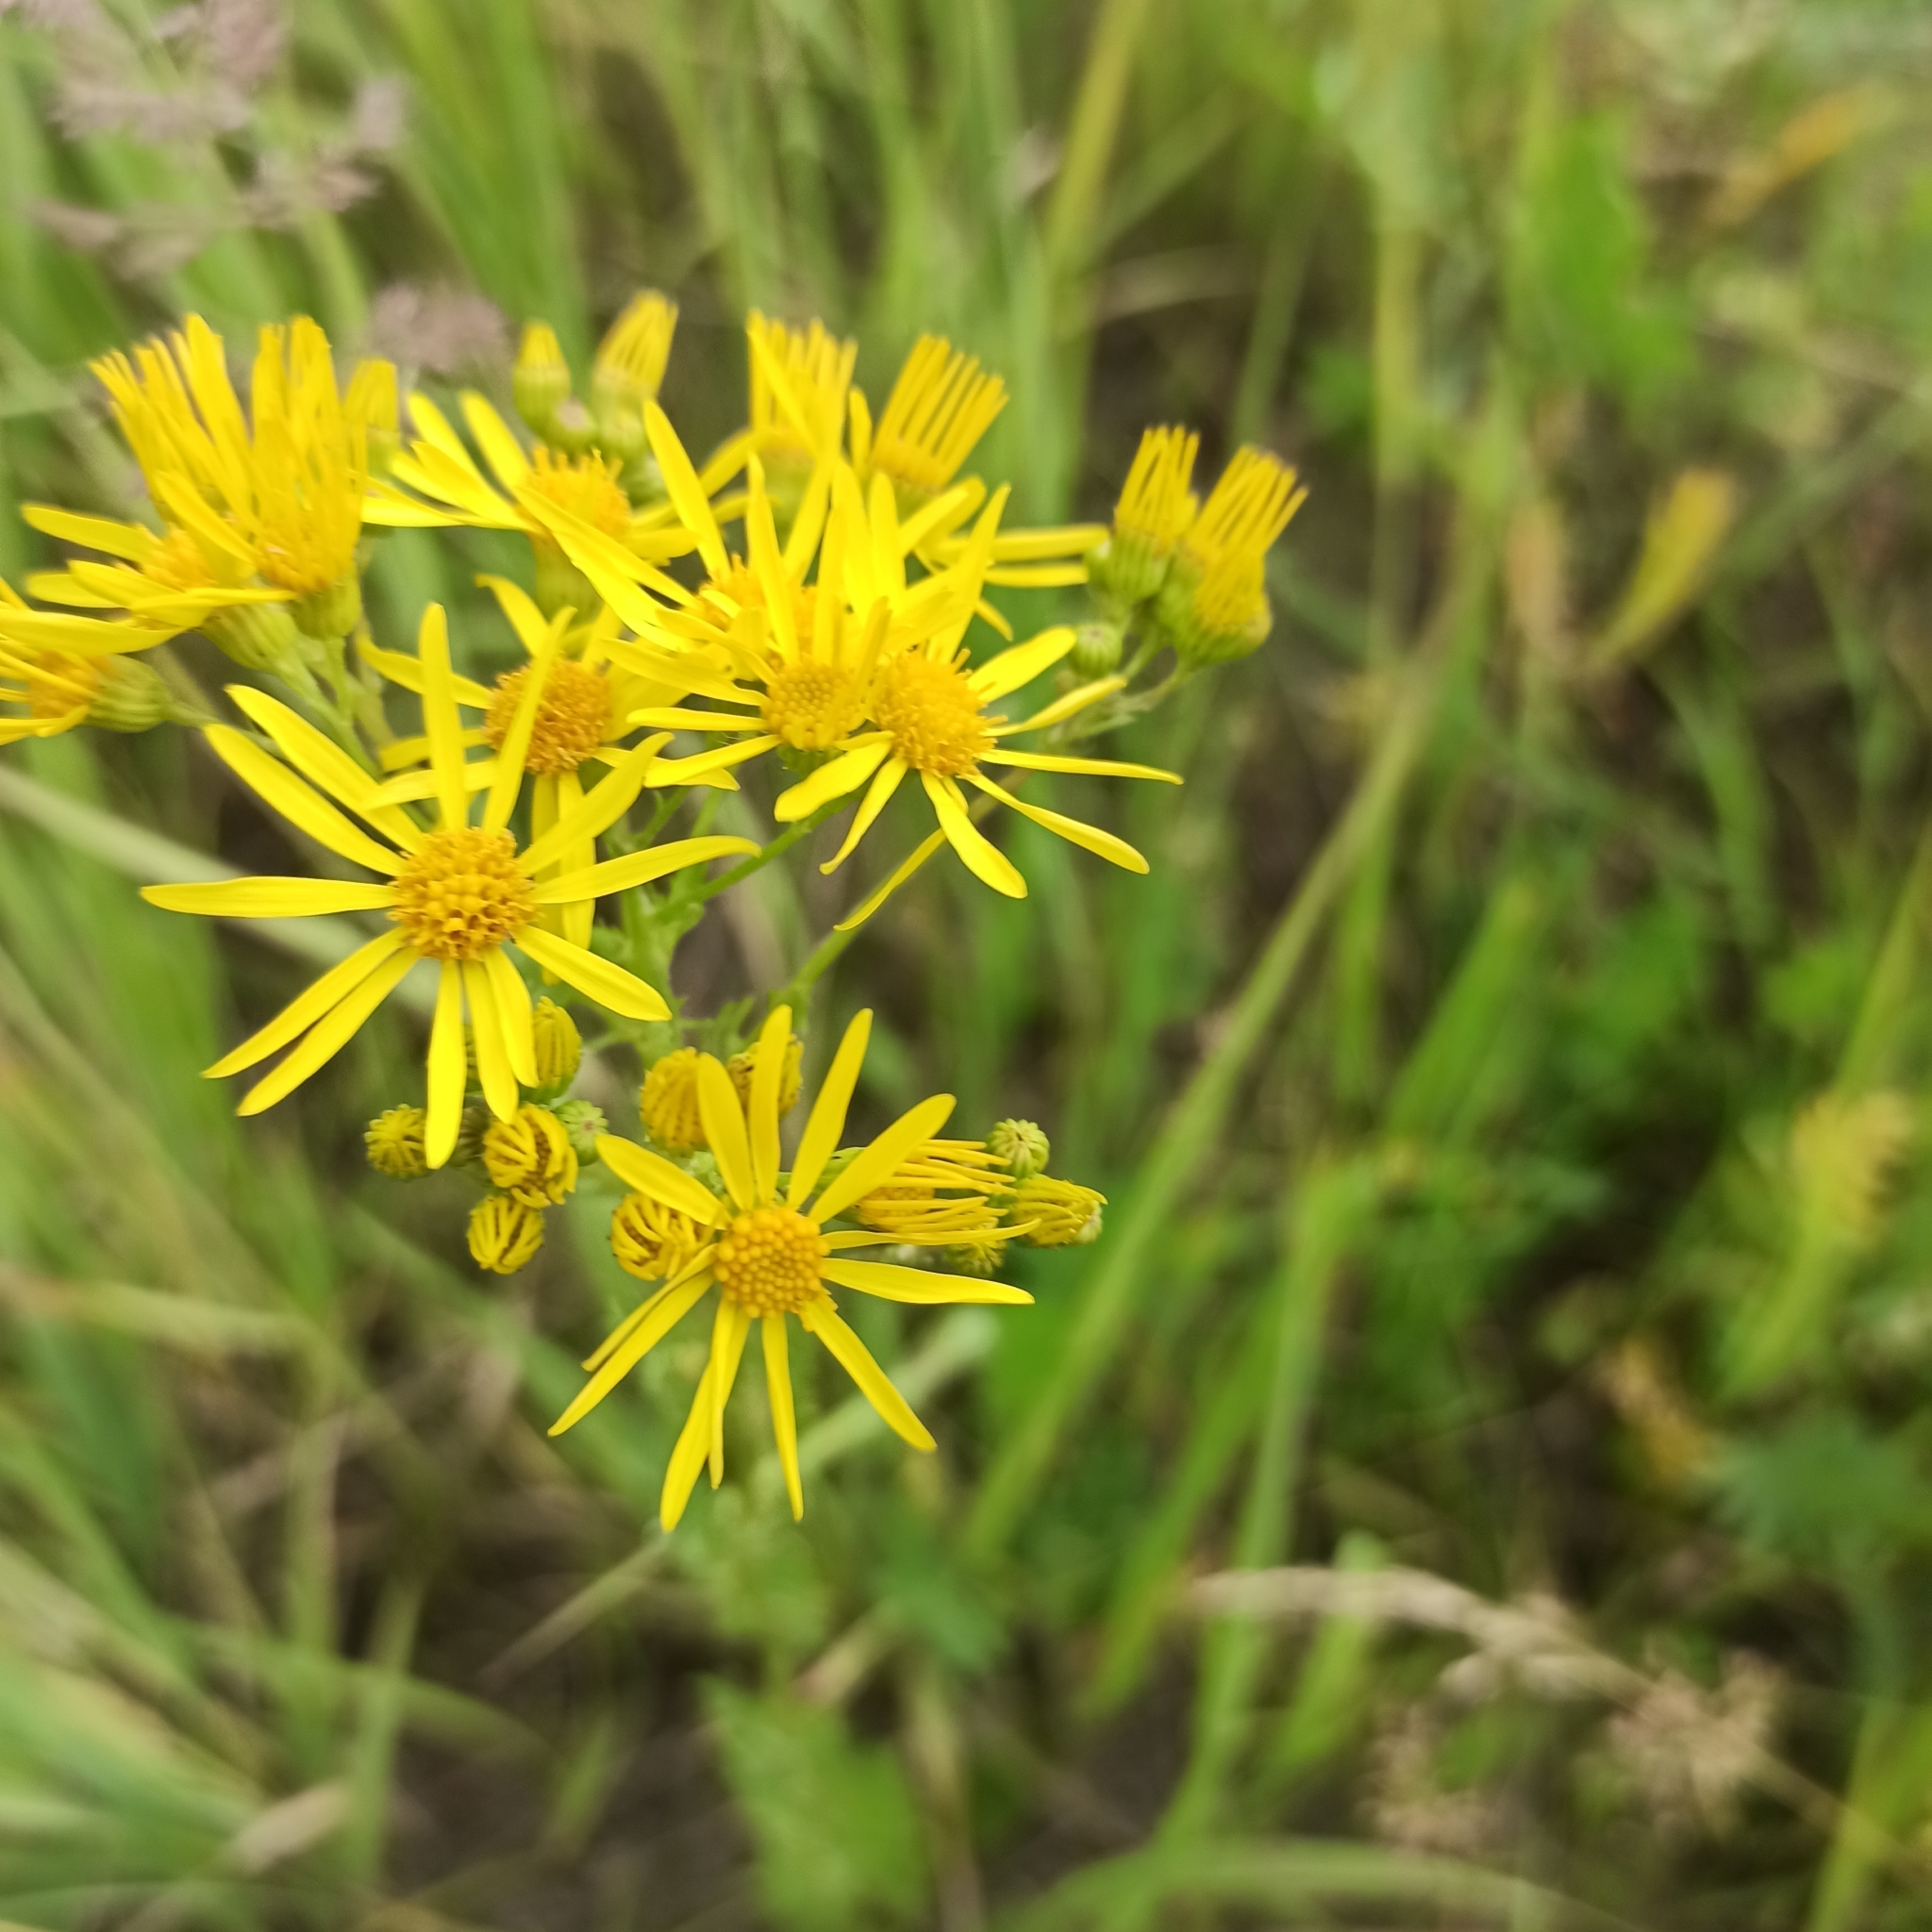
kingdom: Plantae
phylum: Tracheophyta
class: Magnoliopsida
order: Asterales
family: Asteraceae
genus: Jacobaea
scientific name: Jacobaea vulgaris
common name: Stinking willie
